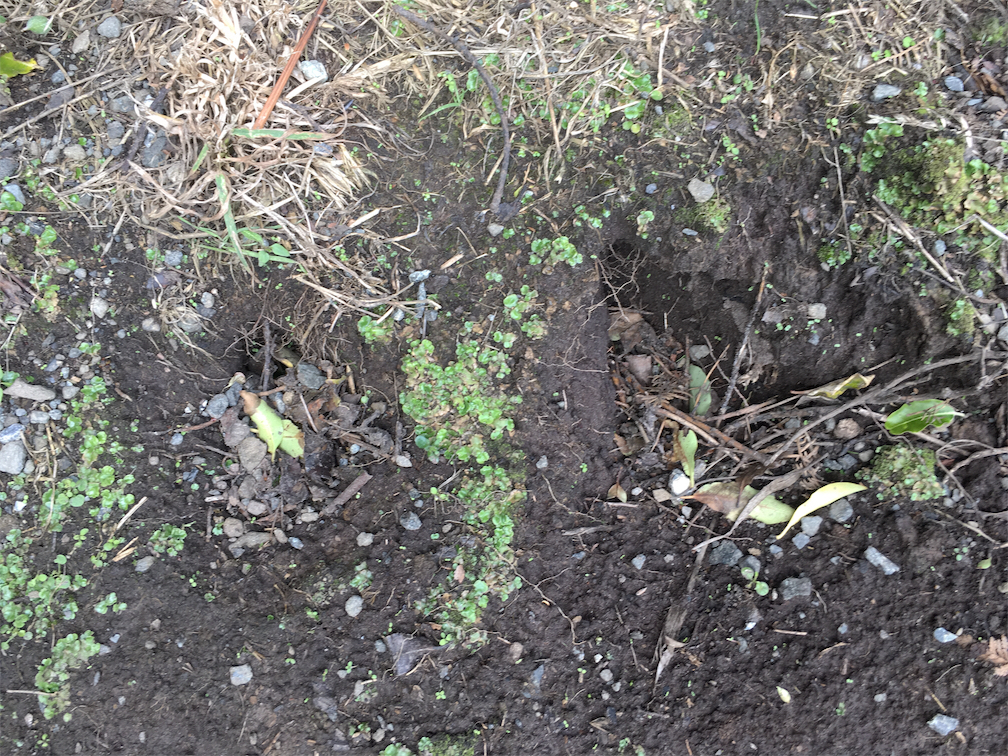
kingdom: Animalia
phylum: Chordata
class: Mammalia
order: Lagomorpha
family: Leporidae
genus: Oryctolagus
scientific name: Oryctolagus cuniculus
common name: European rabbit
